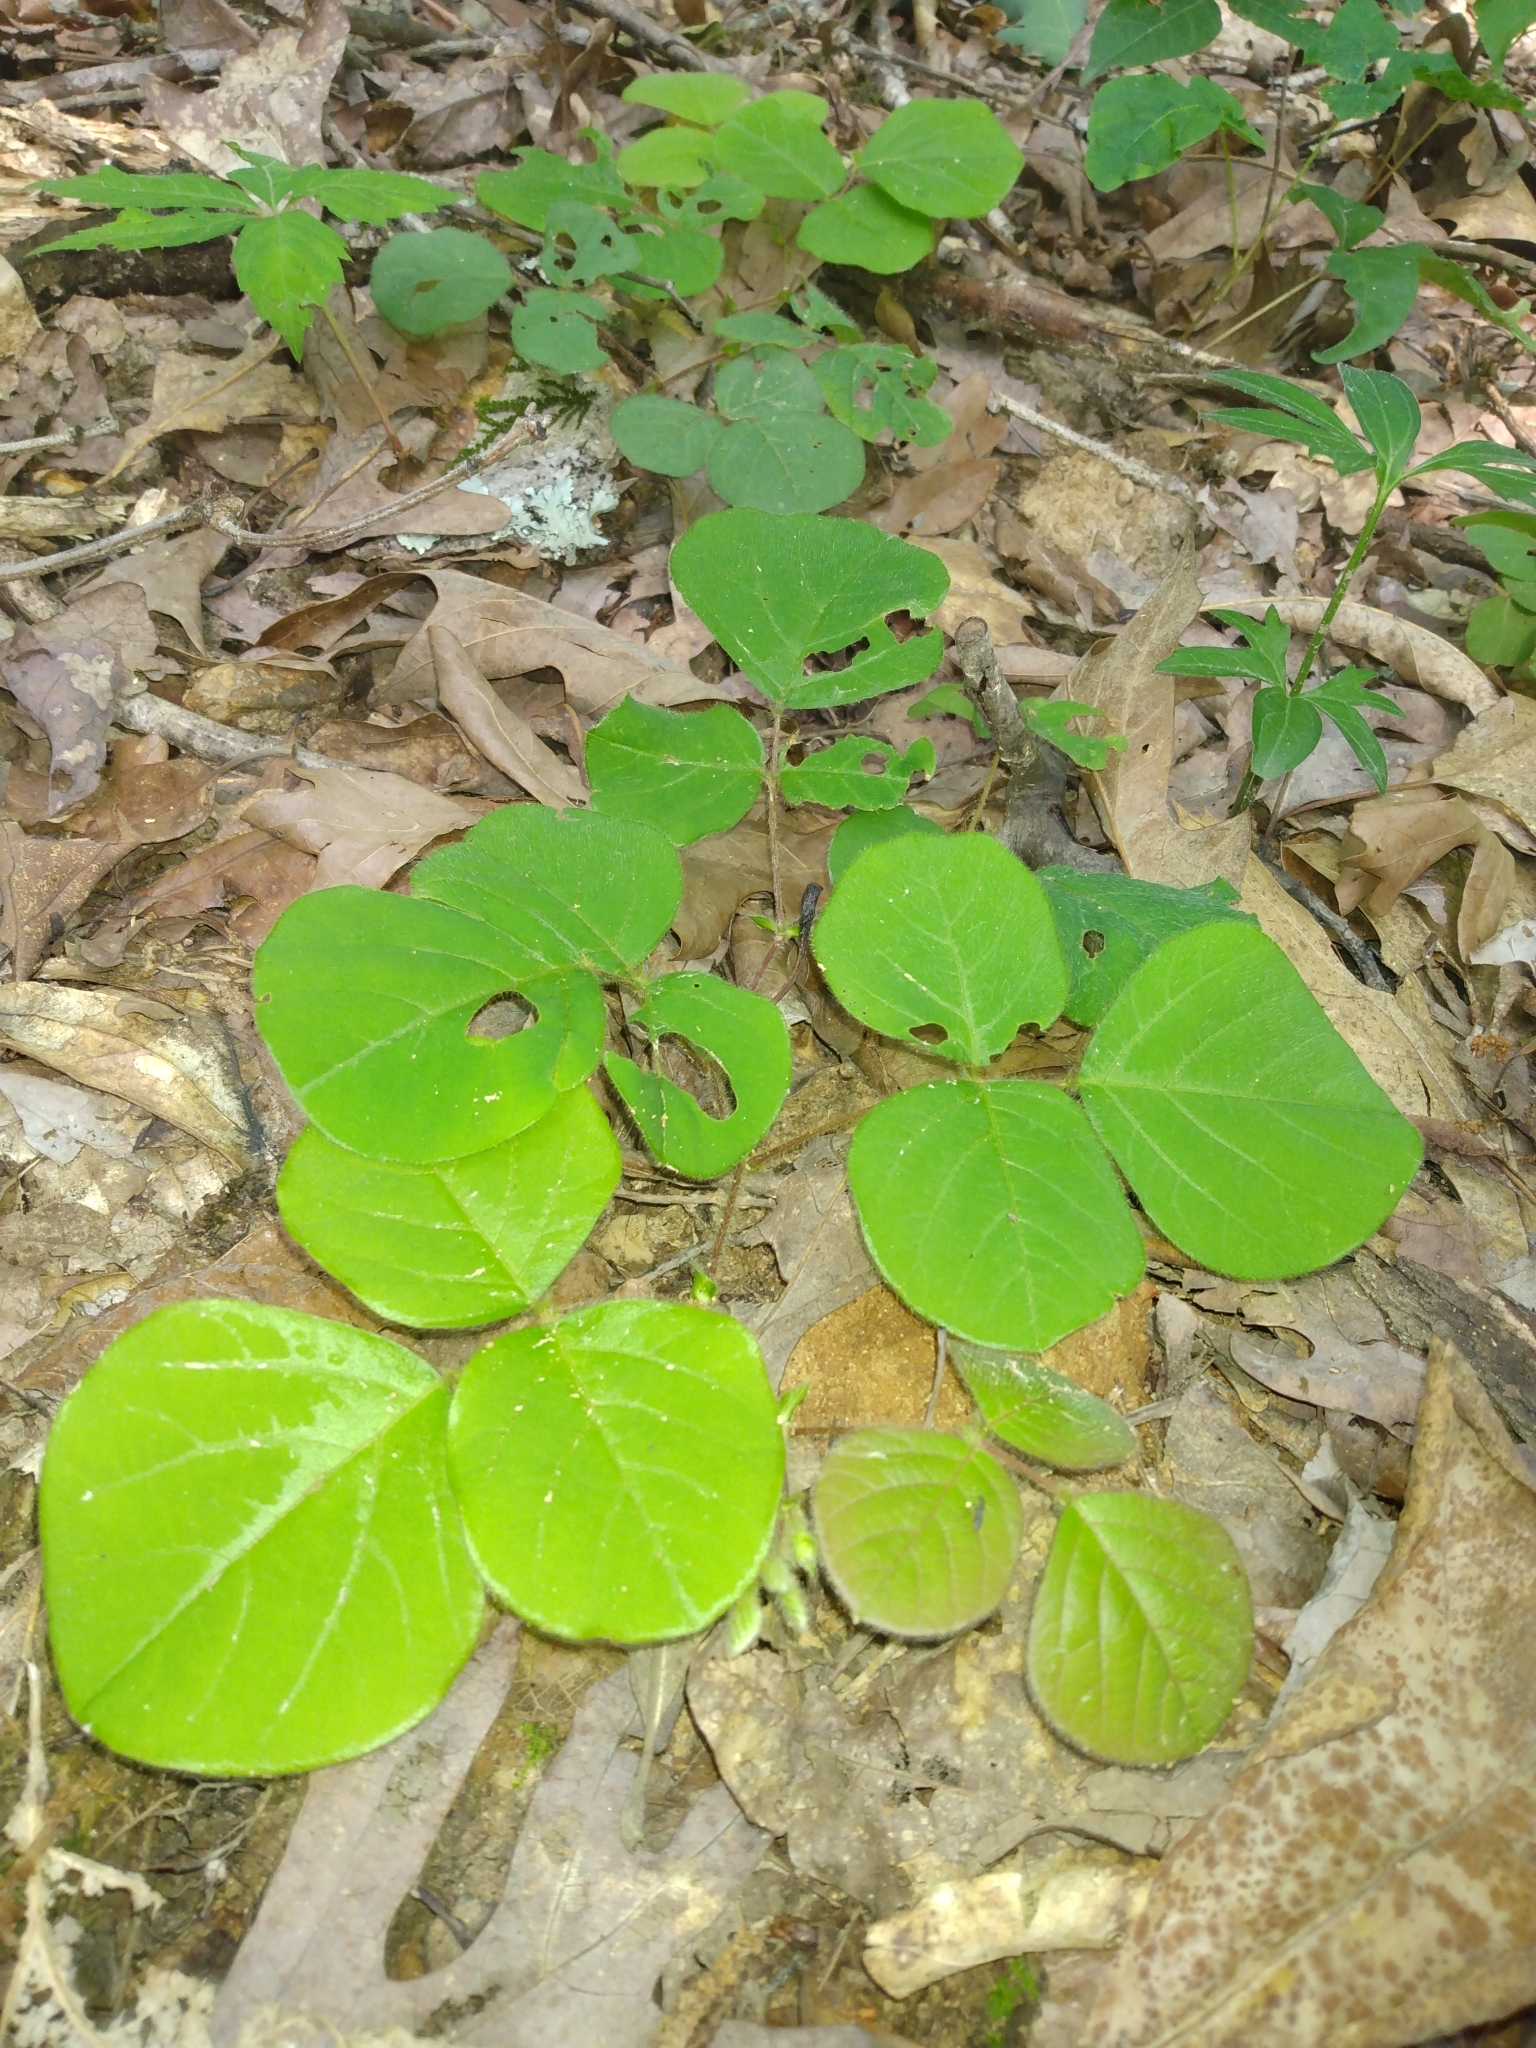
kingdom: Plantae
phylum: Tracheophyta
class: Magnoliopsida
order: Fabales
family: Fabaceae
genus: Desmodium
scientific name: Desmodium rotundifolium
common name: Dollarleaf
